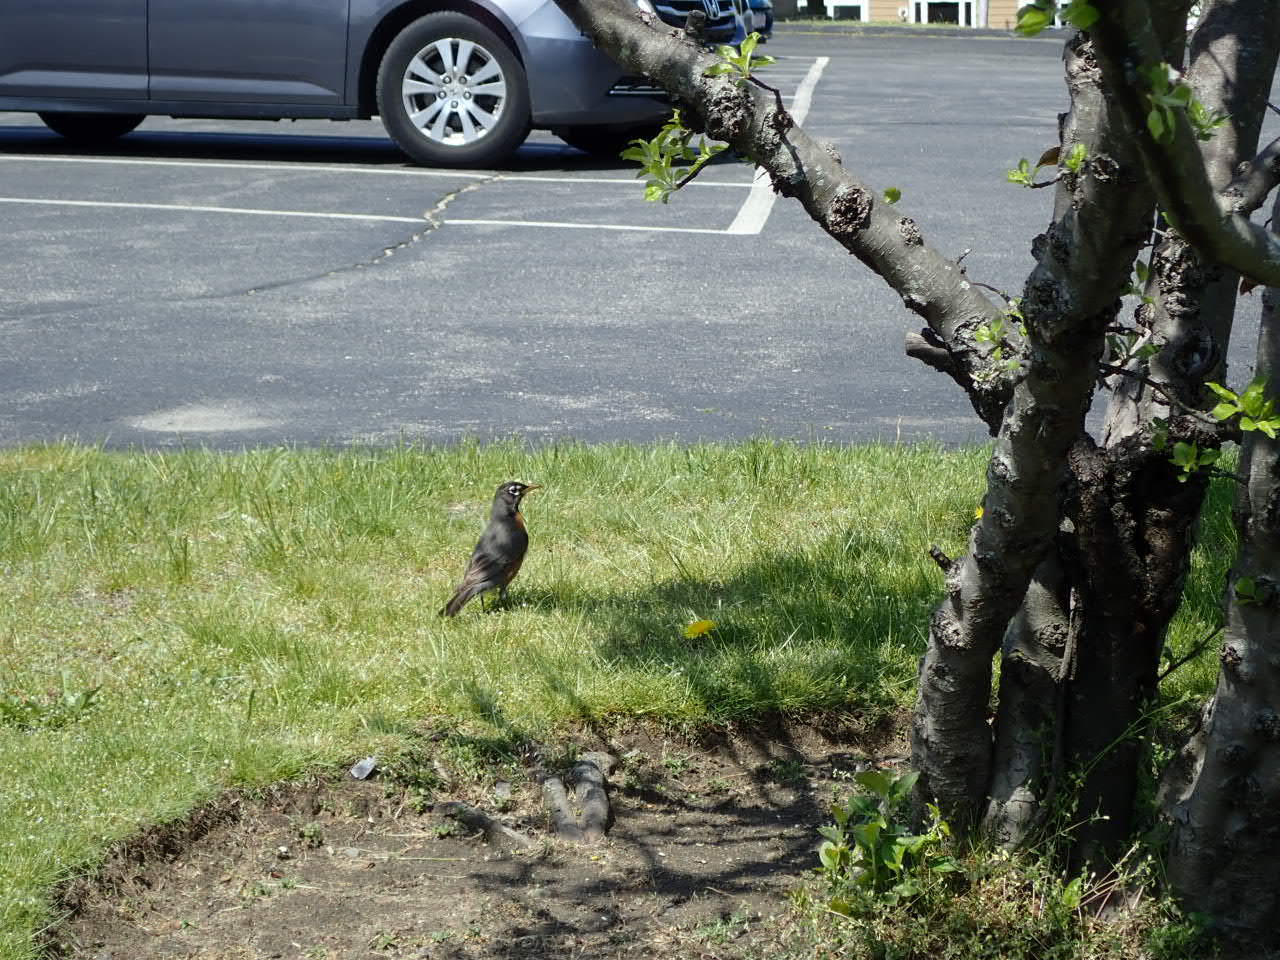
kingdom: Animalia
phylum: Chordata
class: Aves
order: Passeriformes
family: Turdidae
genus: Turdus
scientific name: Turdus migratorius
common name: American robin
